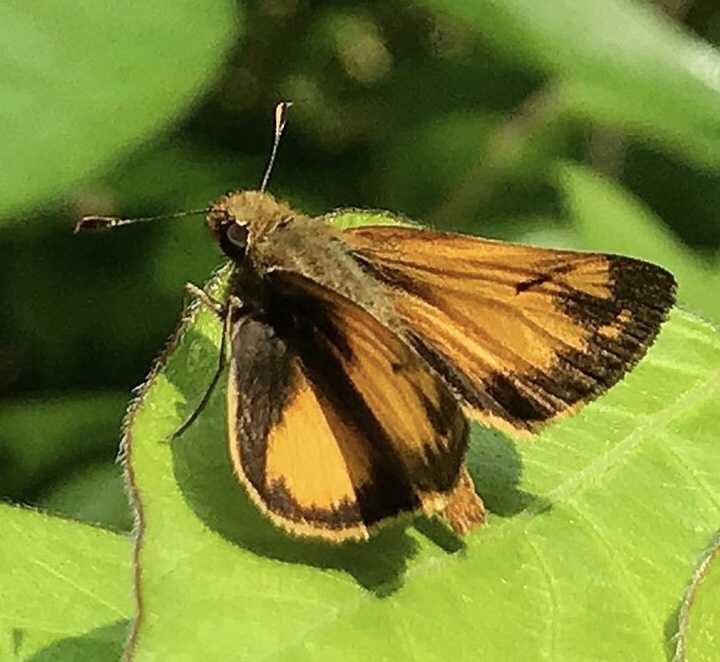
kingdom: Animalia
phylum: Arthropoda
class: Insecta
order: Lepidoptera
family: Hesperiidae
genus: Lon
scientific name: Lon zabulon
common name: Zabulon skipper
